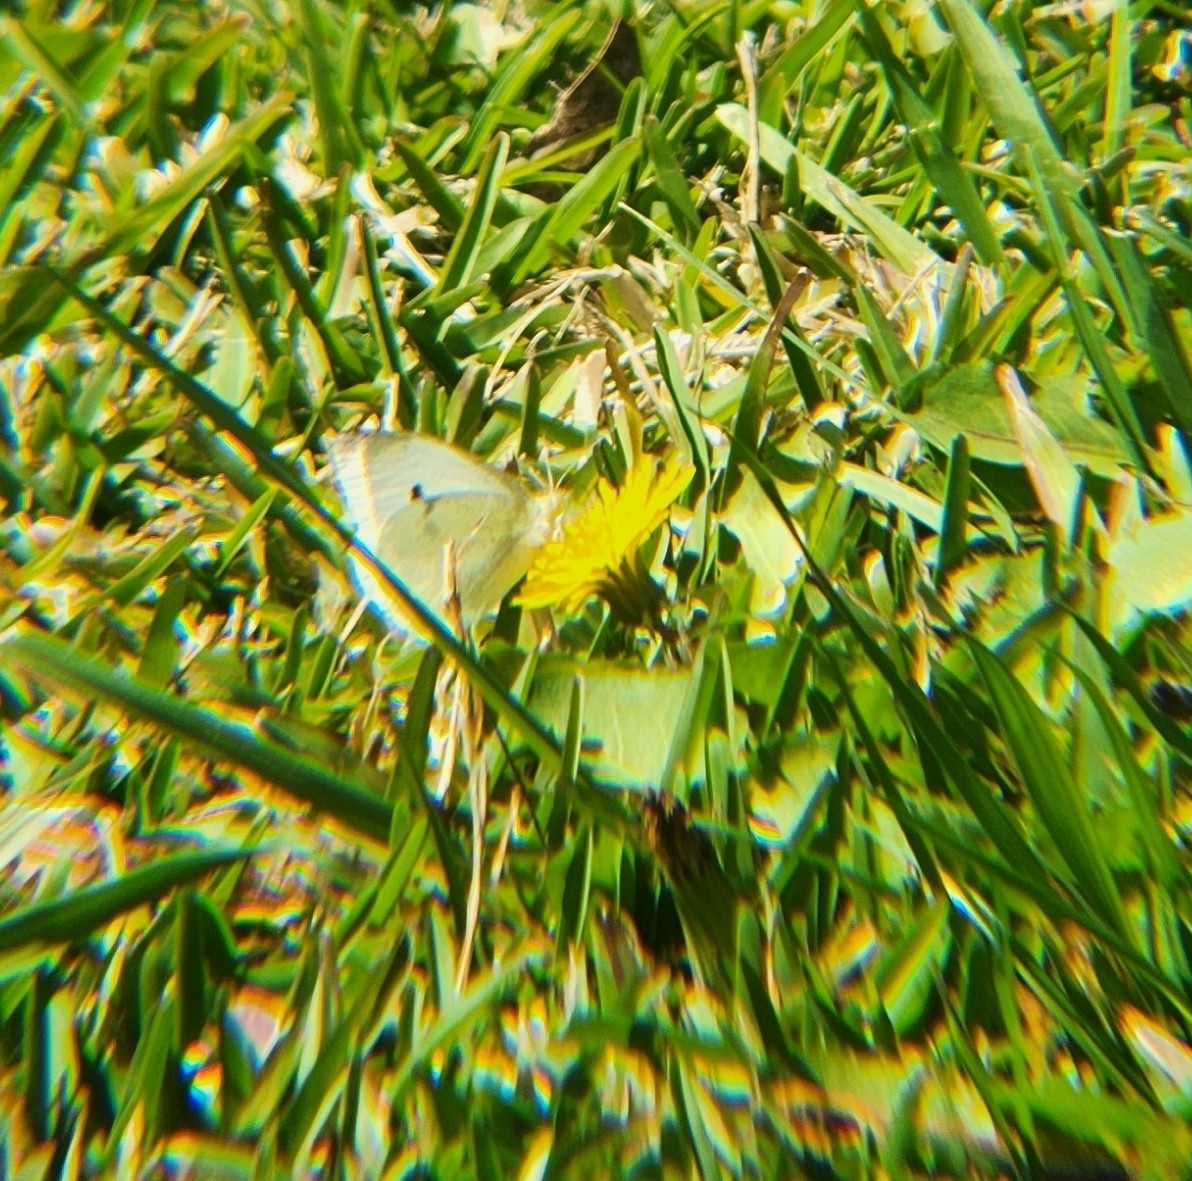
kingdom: Animalia
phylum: Arthropoda
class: Insecta
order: Lepidoptera
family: Pieridae
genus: Pieris
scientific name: Pieris rapae
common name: Small white
